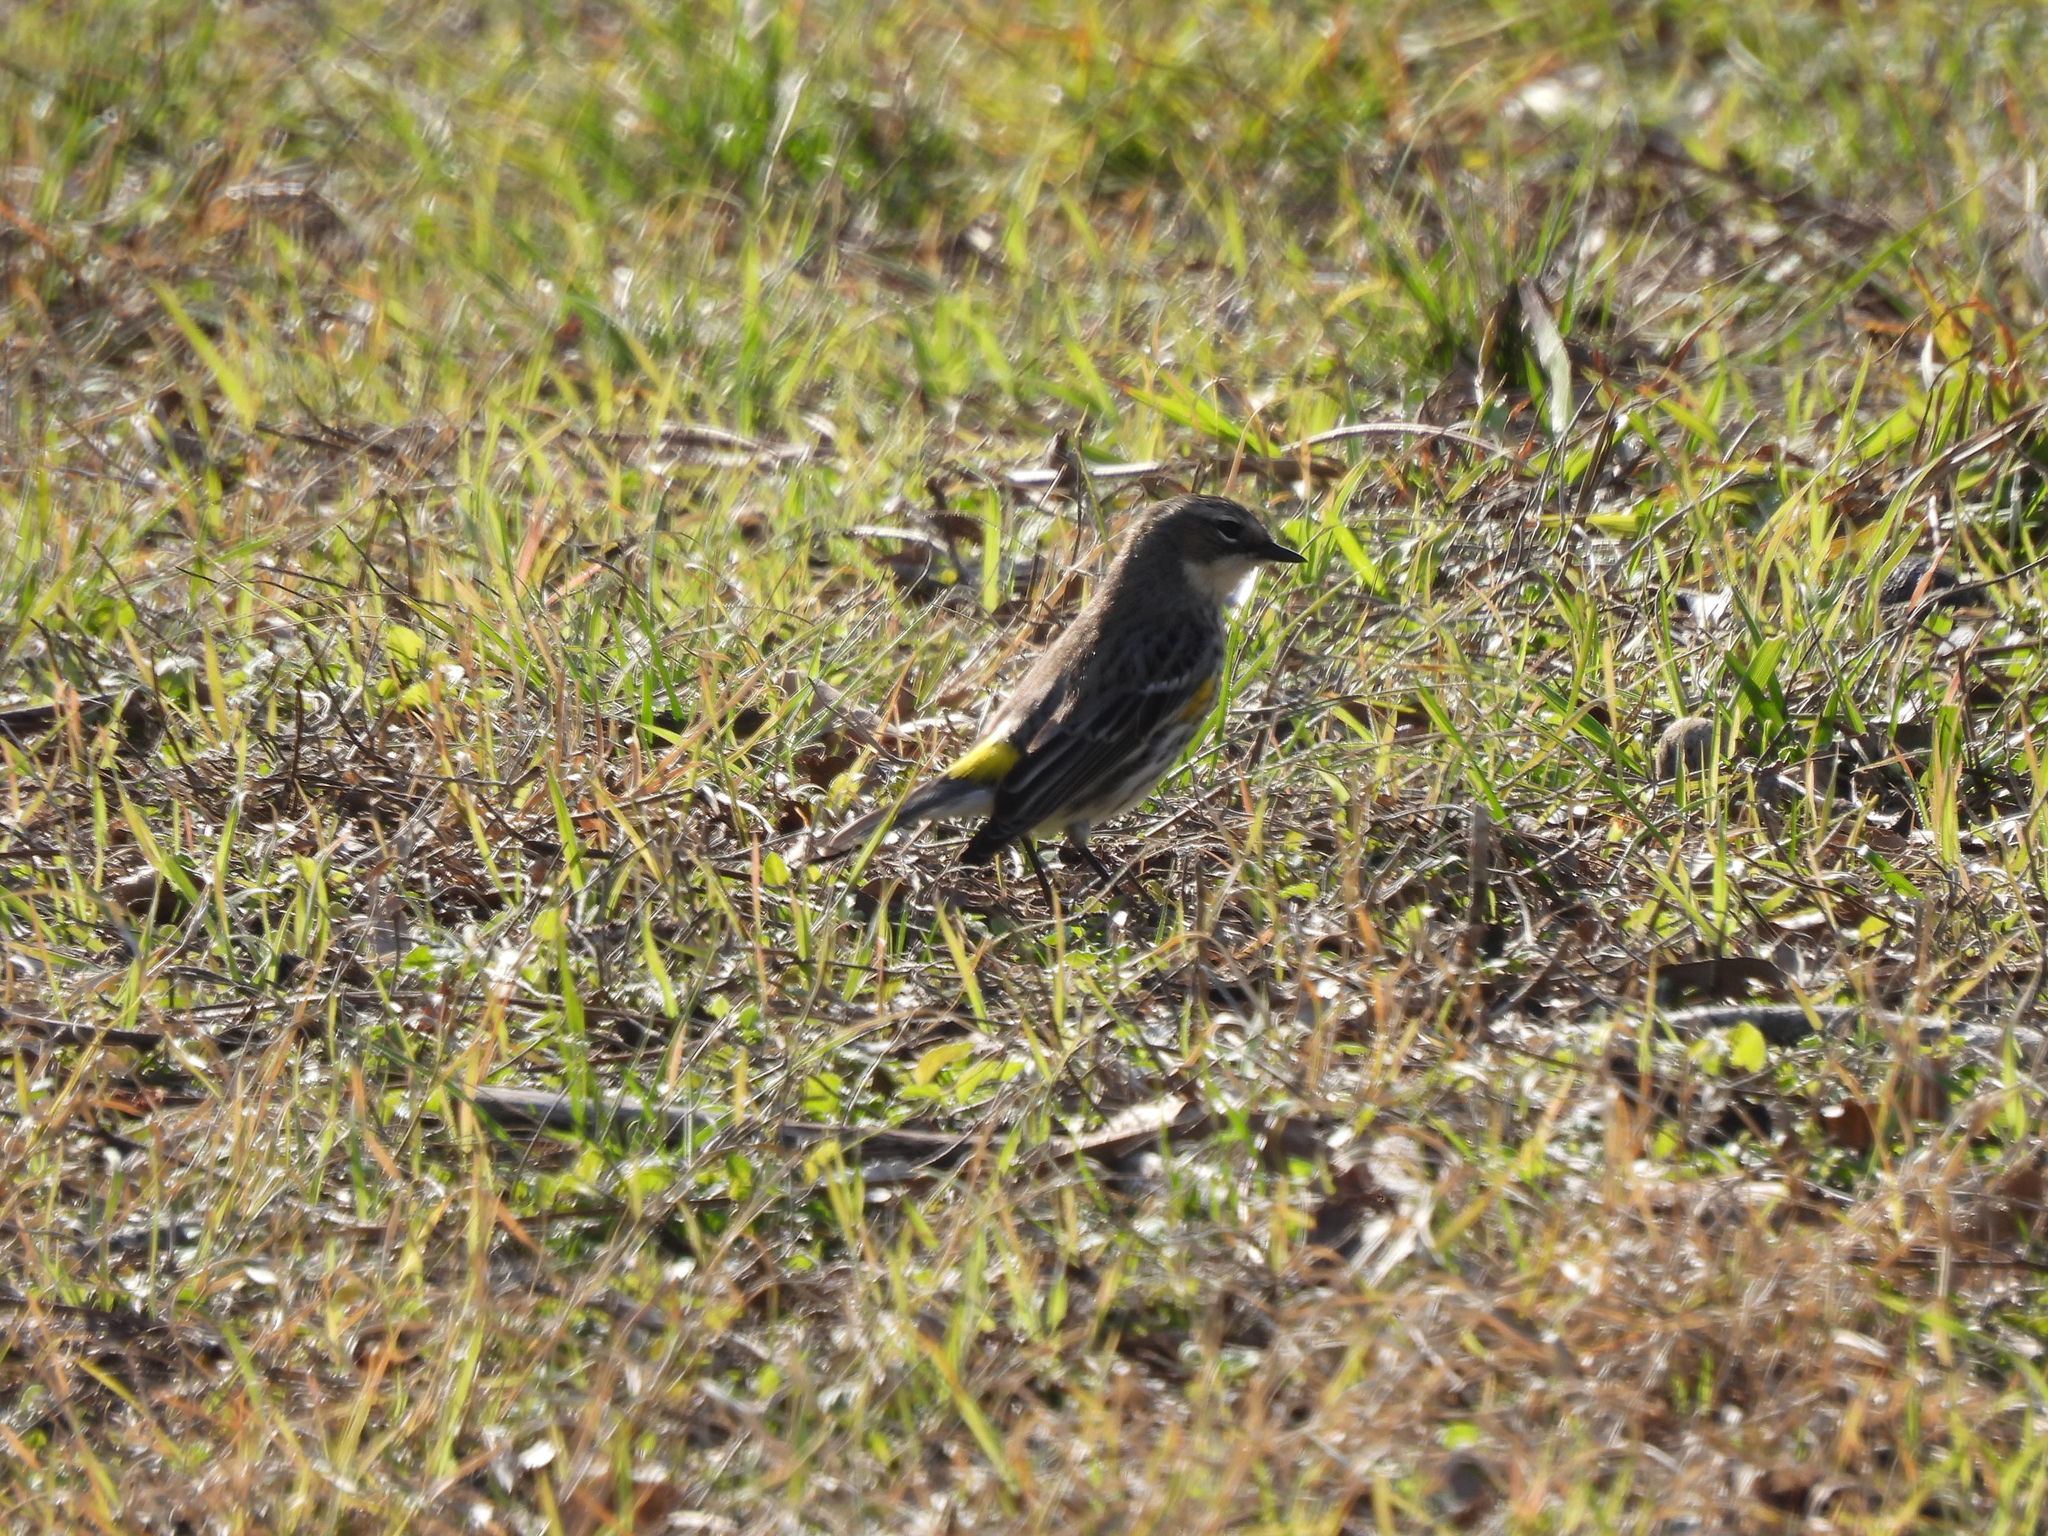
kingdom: Animalia
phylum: Chordata
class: Aves
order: Passeriformes
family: Parulidae
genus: Setophaga
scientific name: Setophaga coronata
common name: Myrtle warbler
